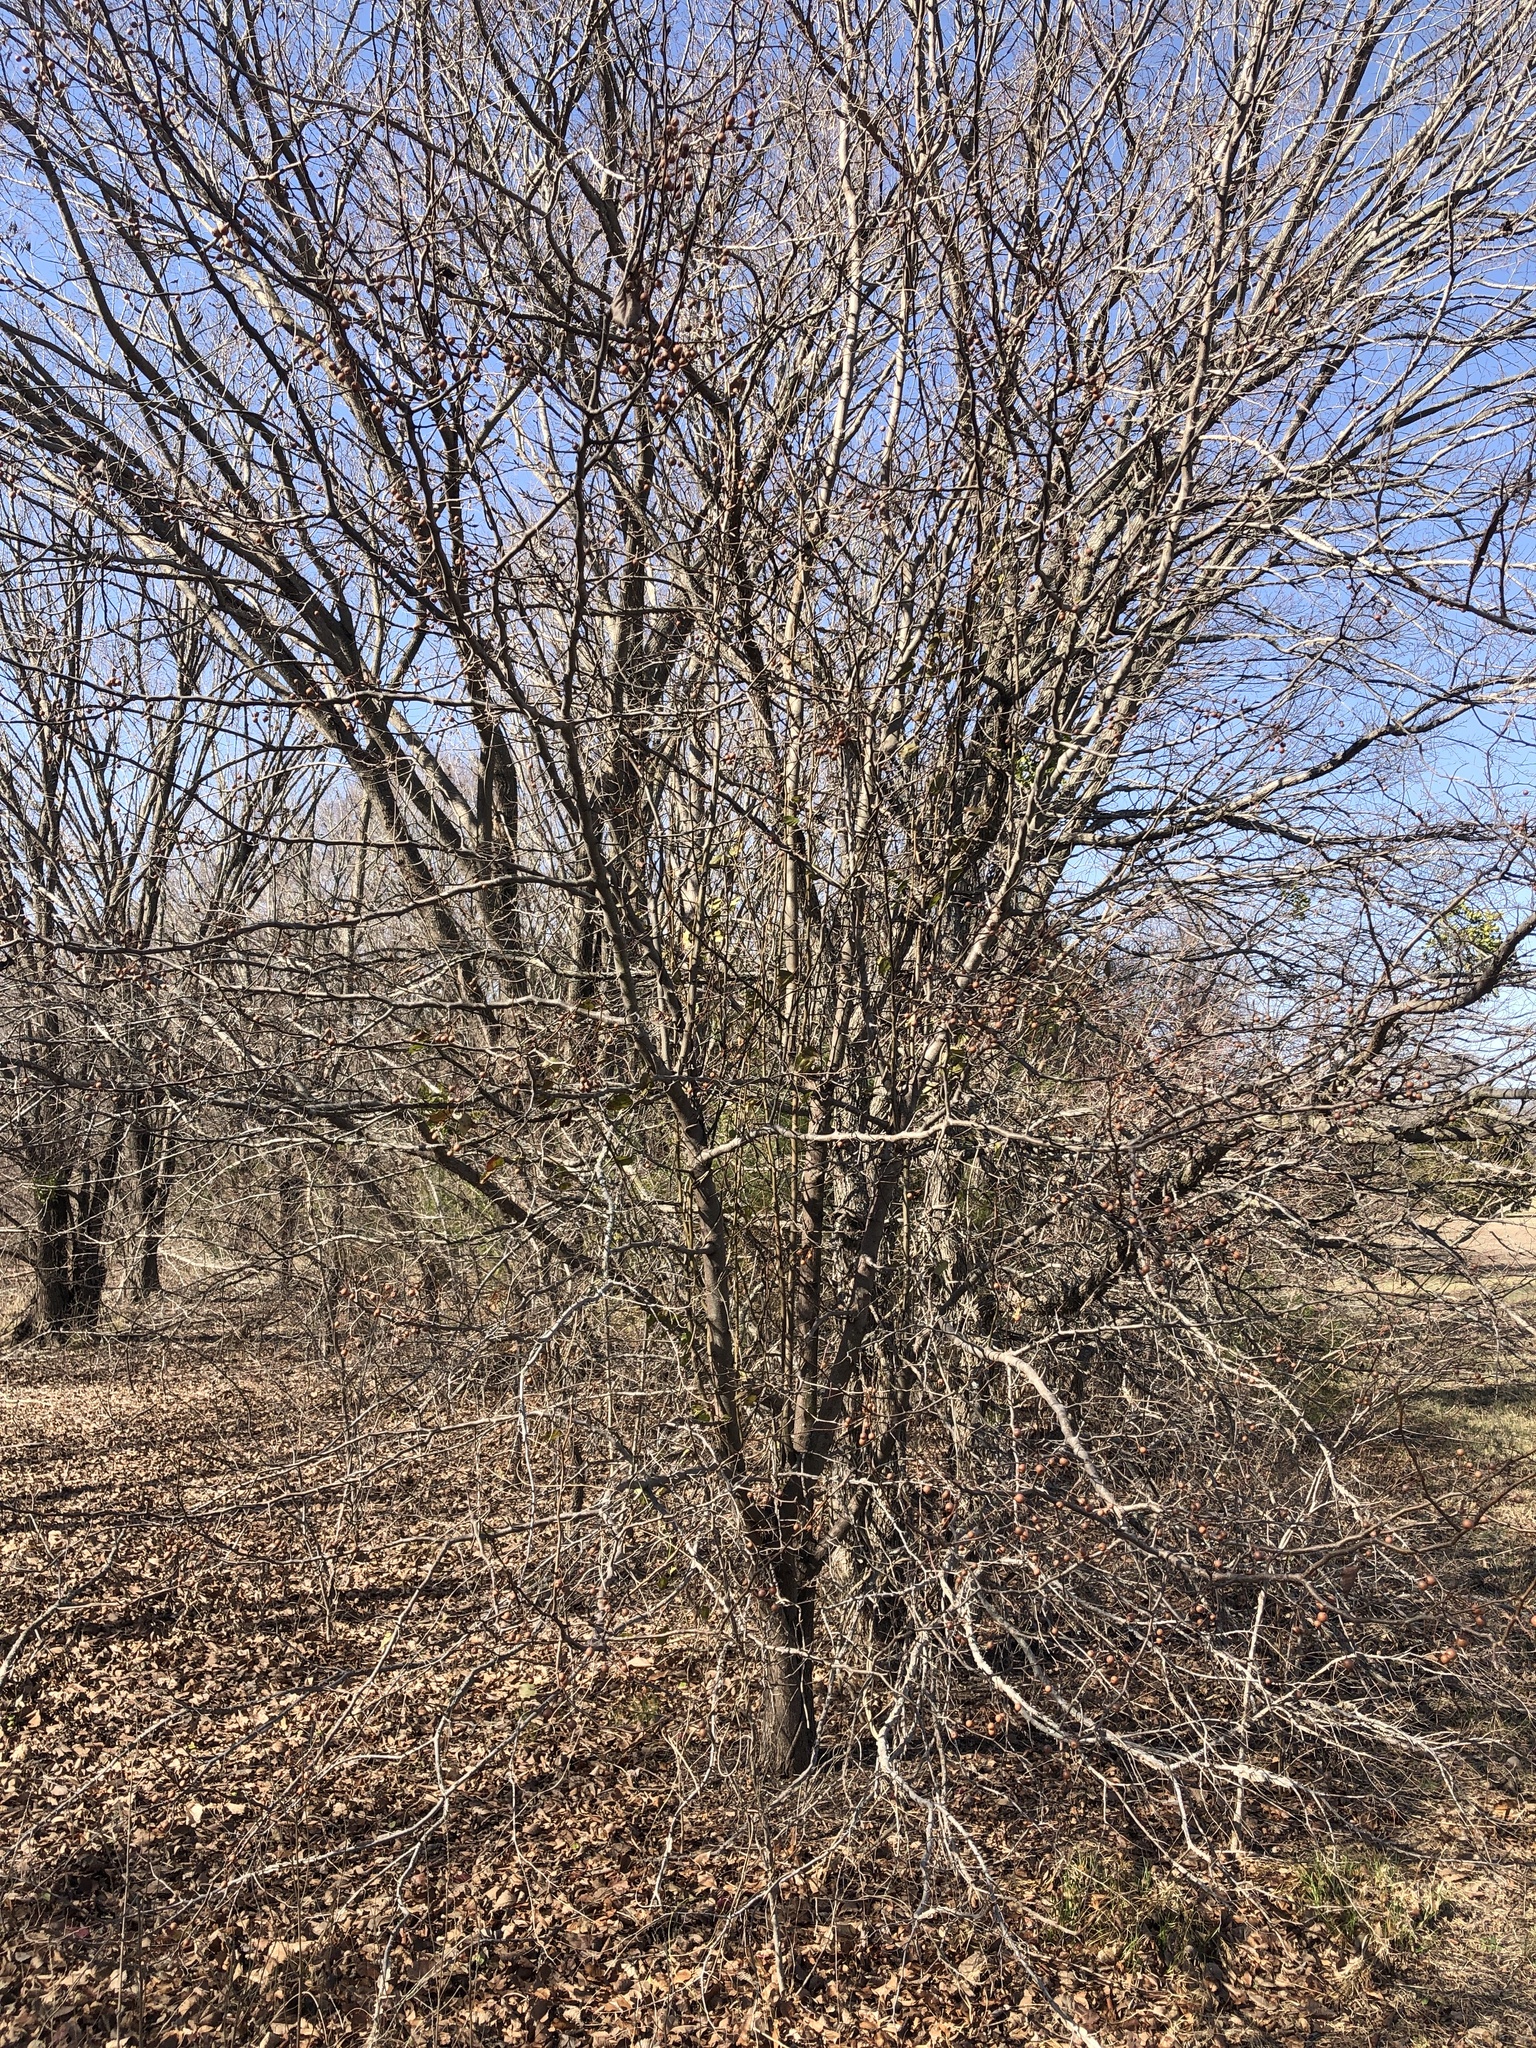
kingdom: Plantae
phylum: Tracheophyta
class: Magnoliopsida
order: Rosales
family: Rosaceae
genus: Pyrus
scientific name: Pyrus calleryana
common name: Callery pear
